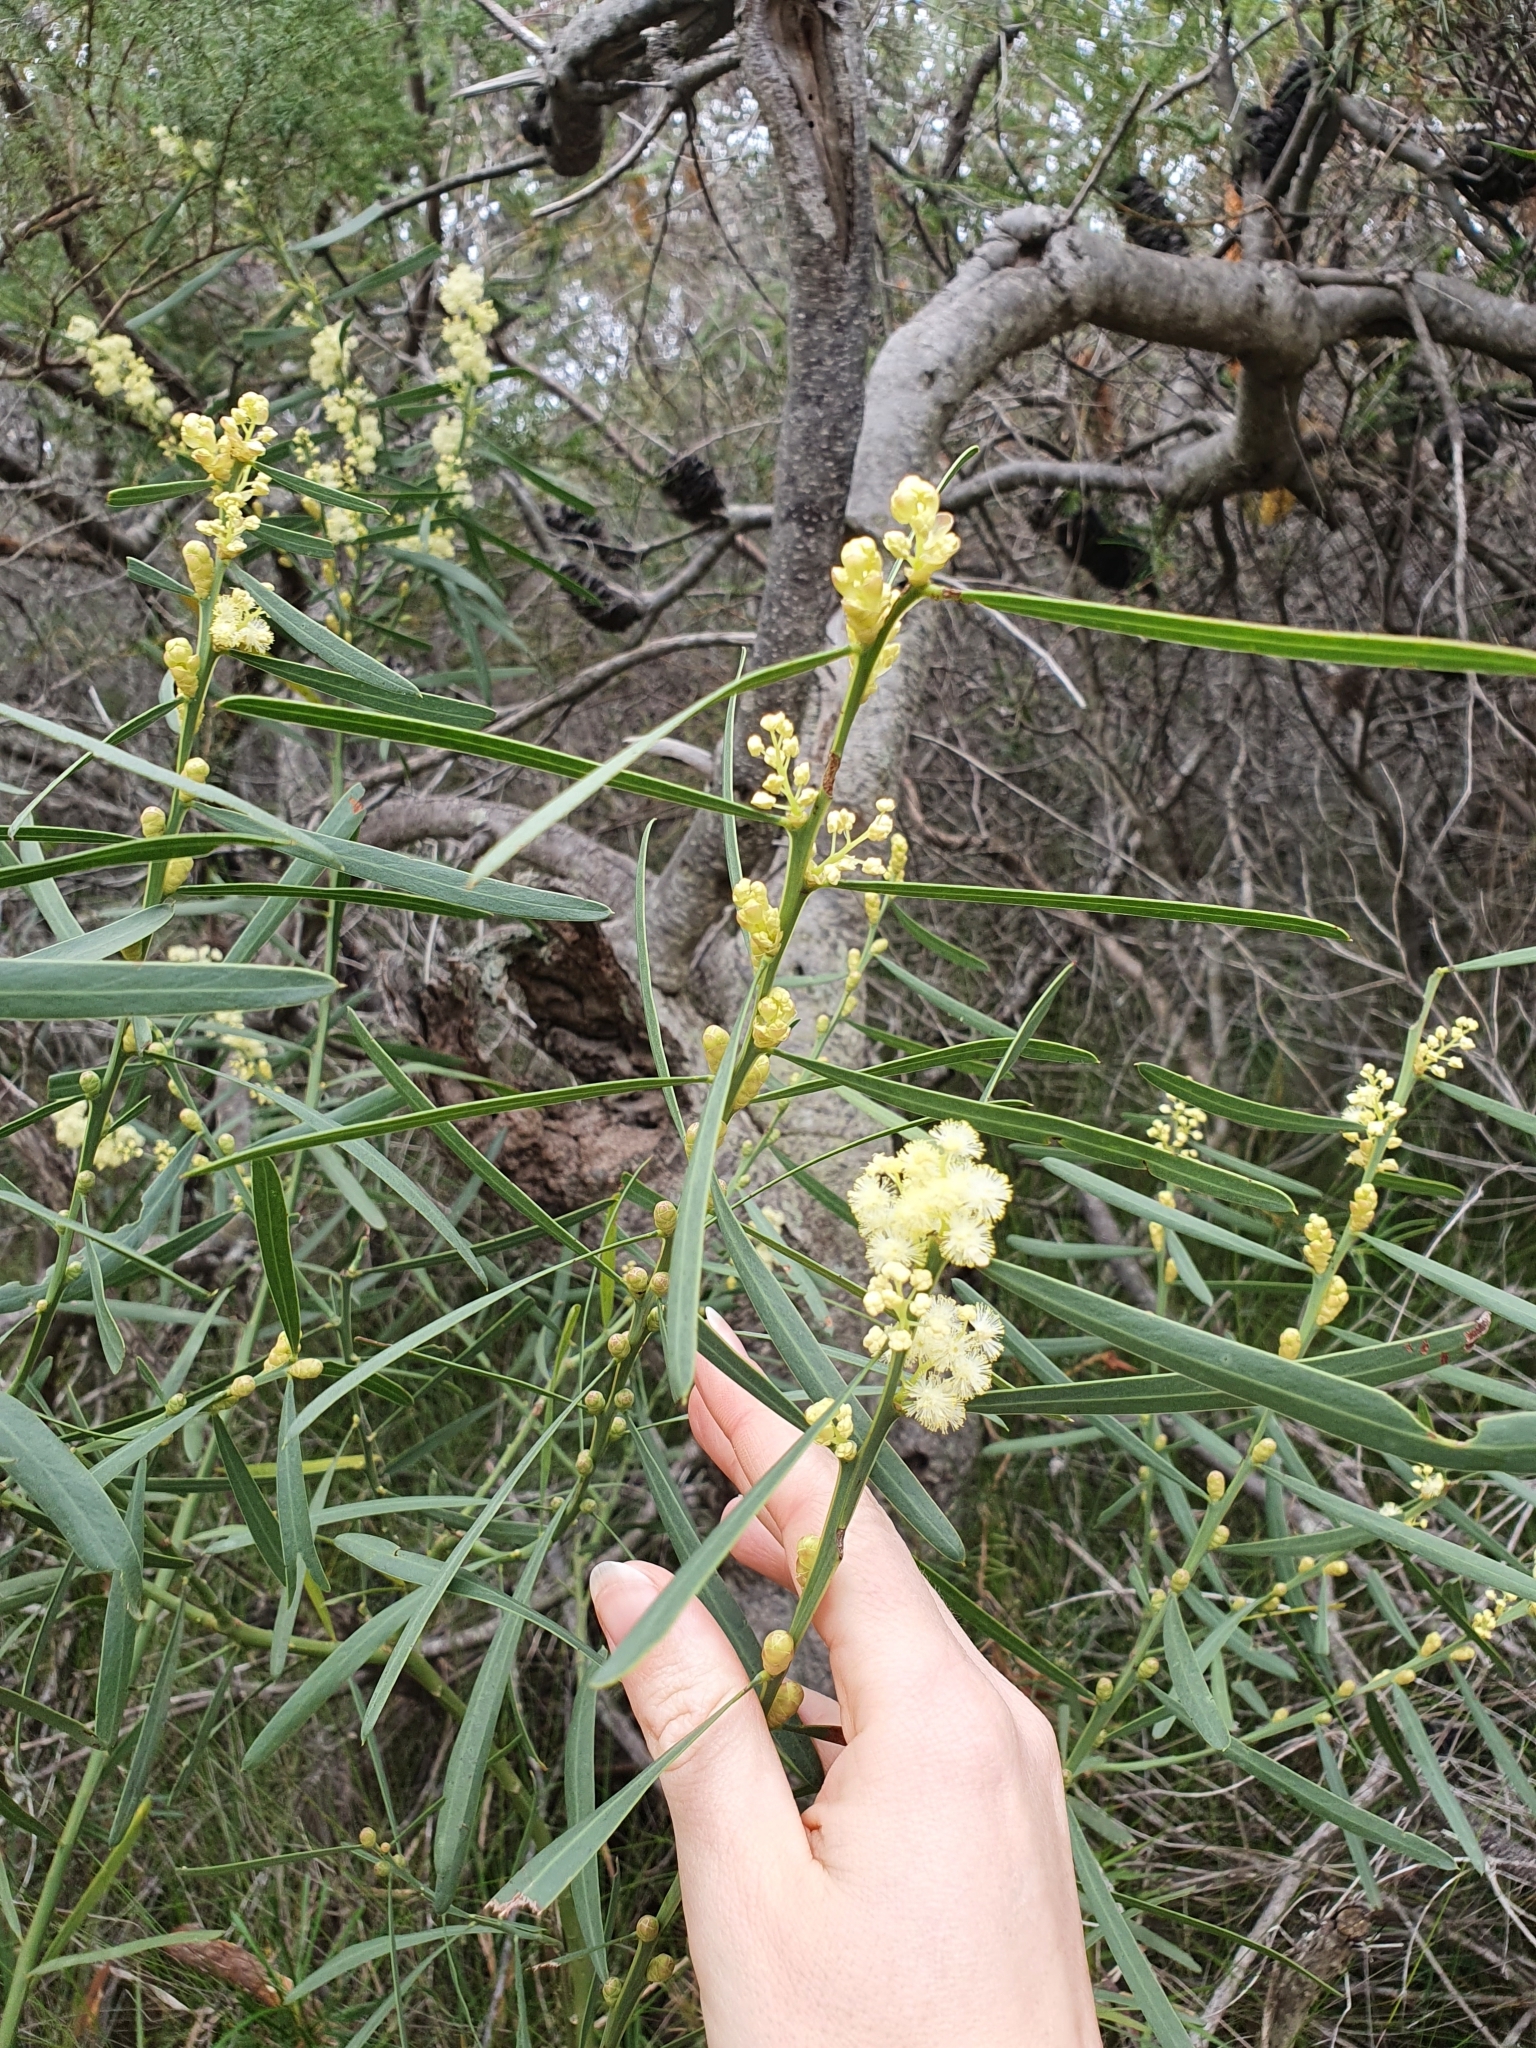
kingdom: Plantae
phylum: Tracheophyta
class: Magnoliopsida
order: Fabales
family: Fabaceae
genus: Acacia
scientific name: Acacia suaveolens
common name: Sweet acacia
